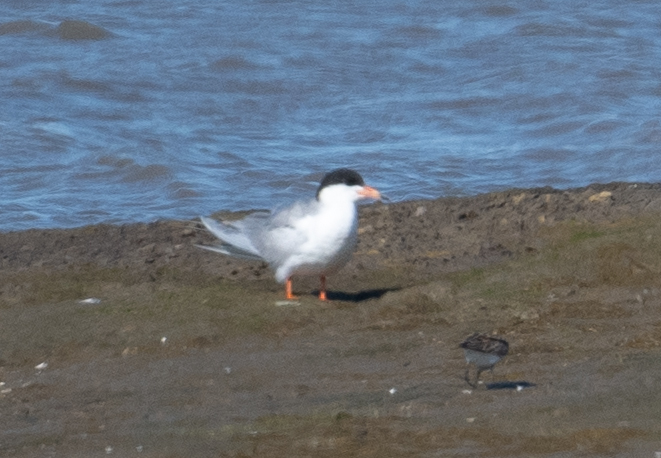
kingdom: Animalia
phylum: Chordata
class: Aves
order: Charadriiformes
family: Laridae
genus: Sterna
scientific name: Sterna forsteri
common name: Forster's tern
